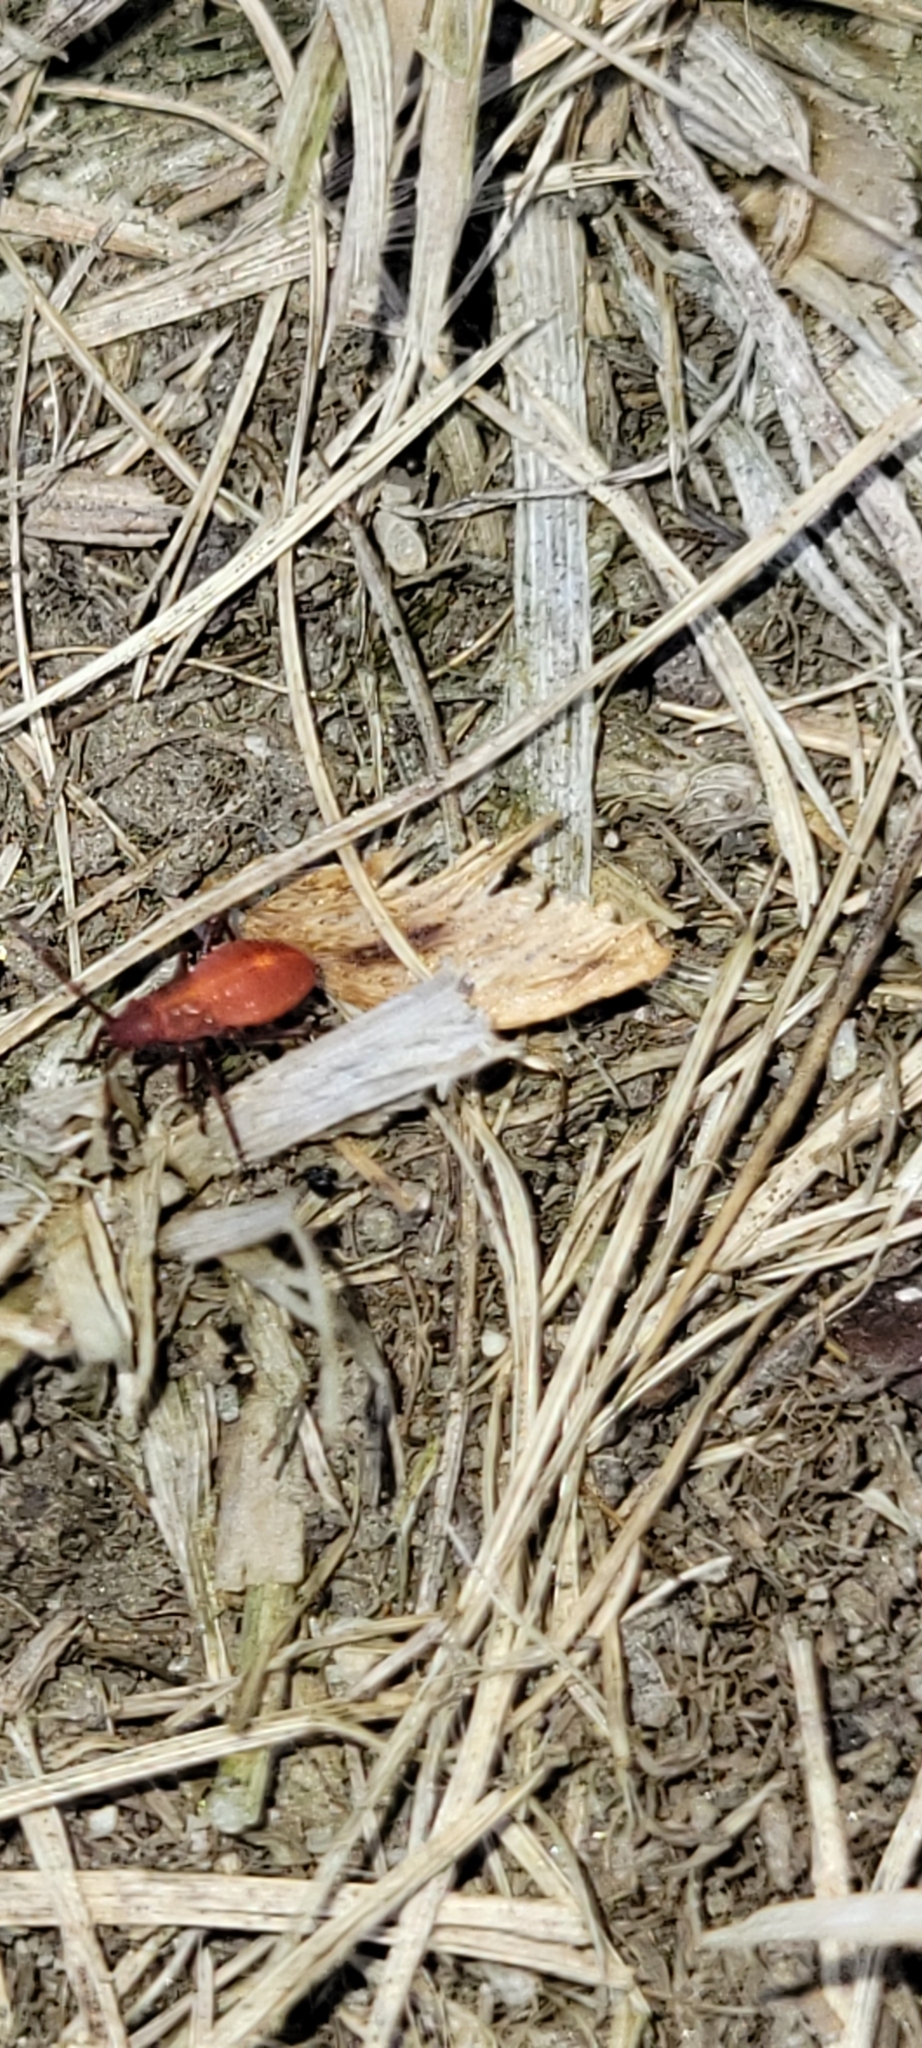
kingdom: Animalia
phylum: Arthropoda
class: Insecta
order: Hemiptera
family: Rhopalidae
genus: Boisea
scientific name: Boisea trivittata
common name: Boxelder bug
